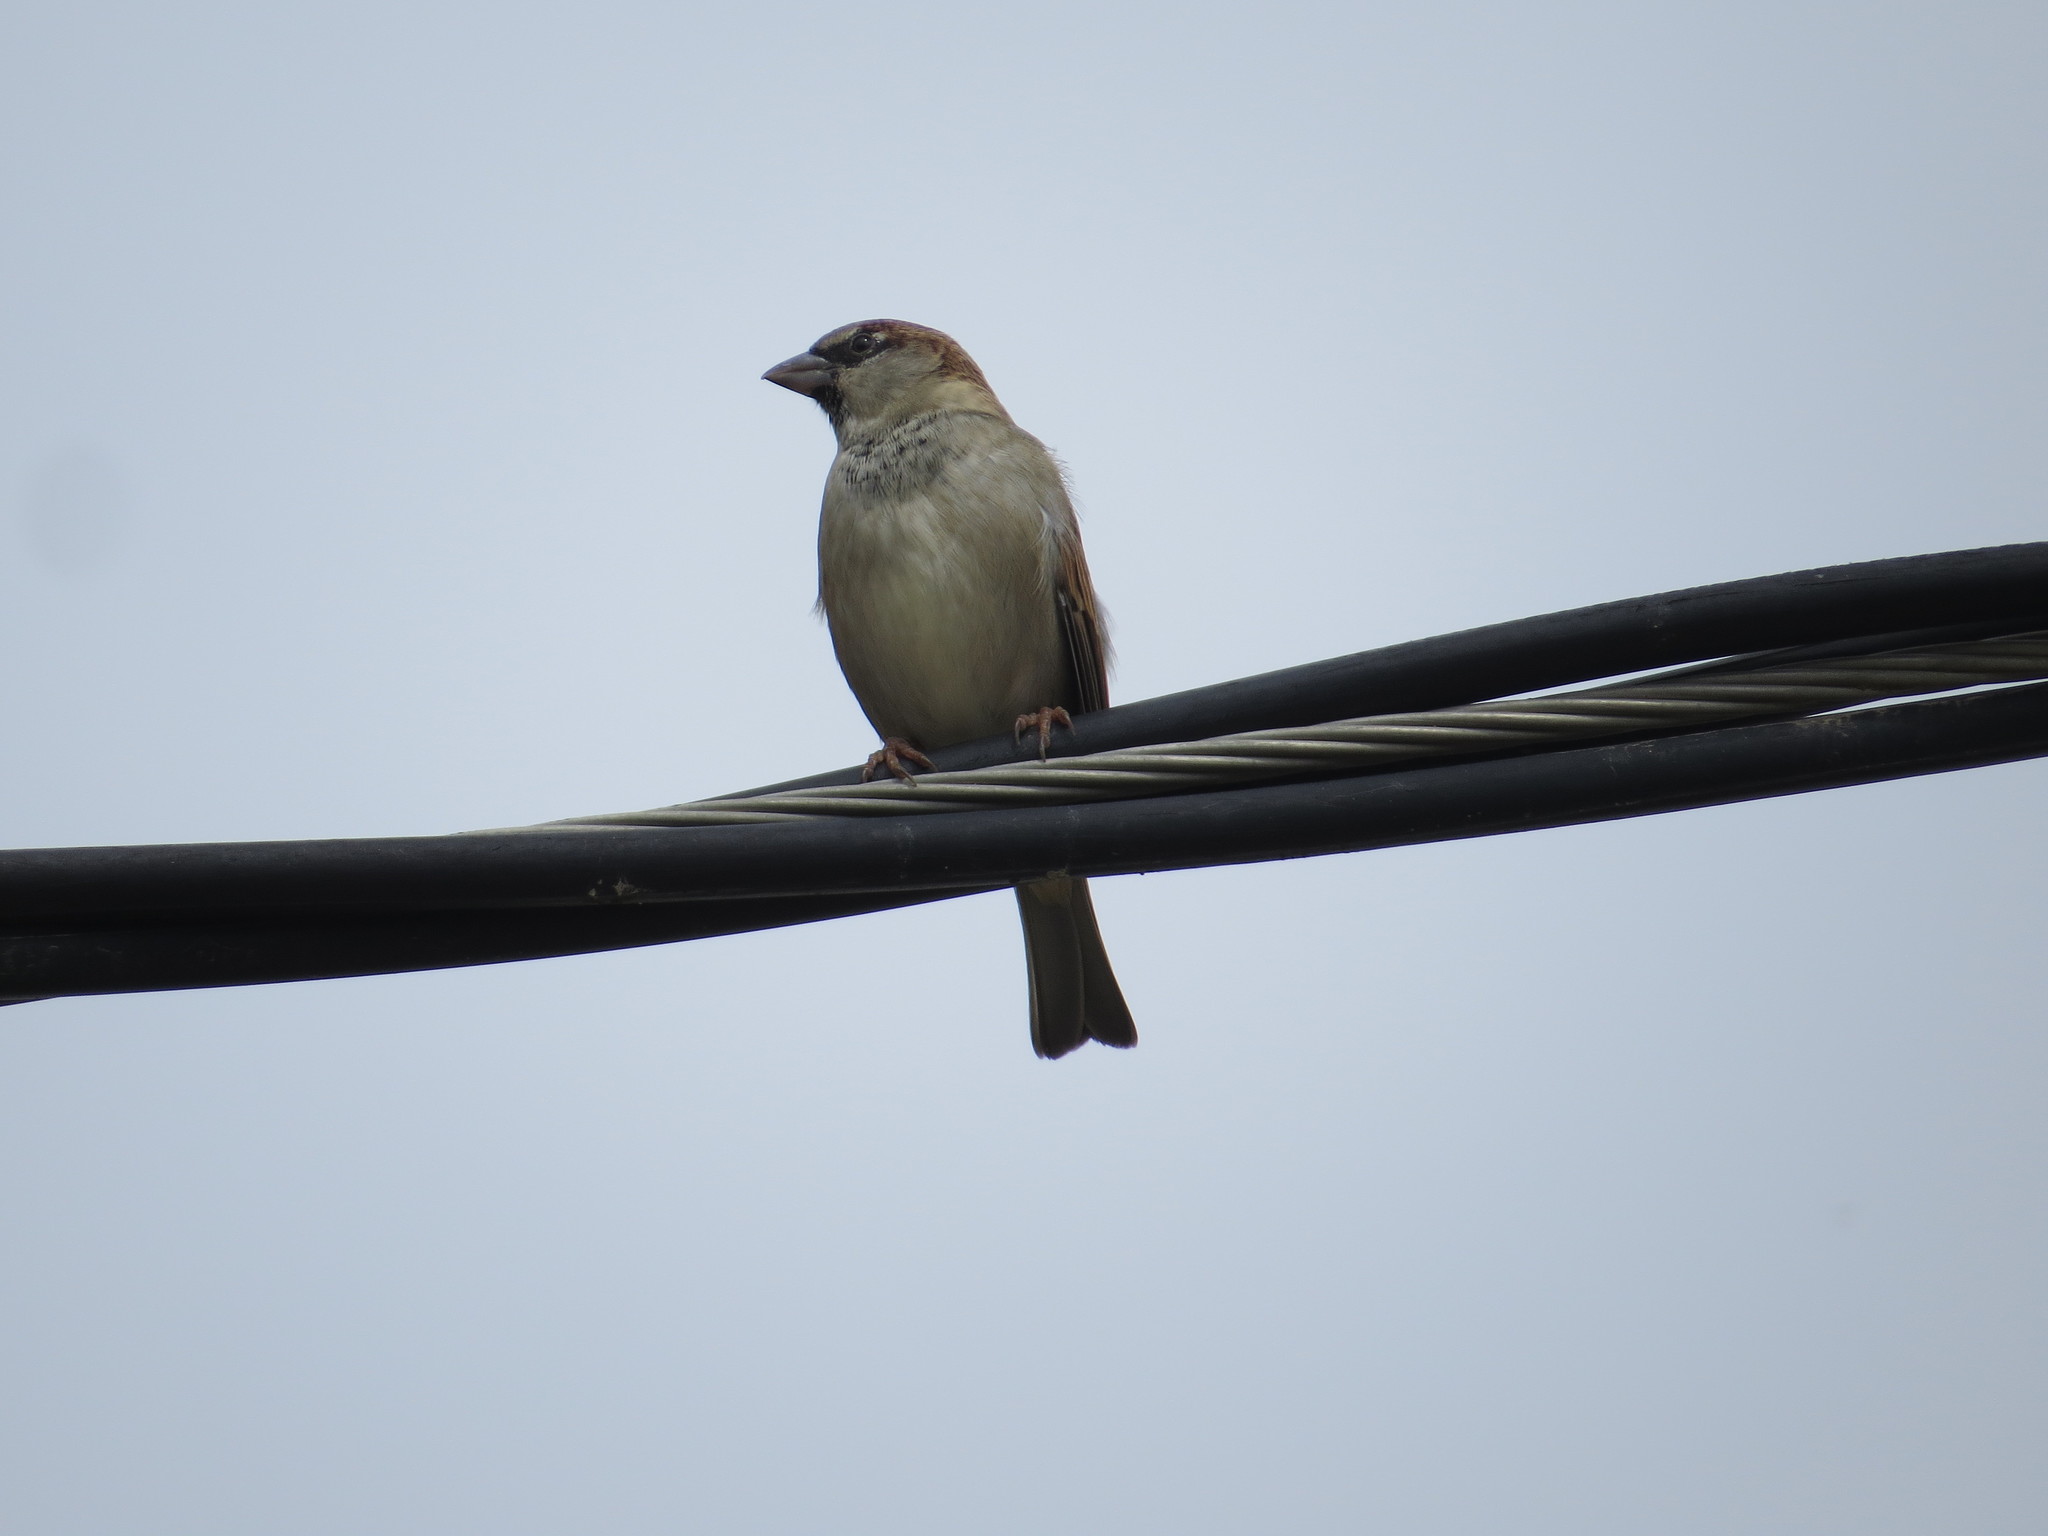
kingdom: Animalia
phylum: Chordata
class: Aves
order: Passeriformes
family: Passeridae
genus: Passer
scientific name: Passer domesticus
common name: House sparrow
